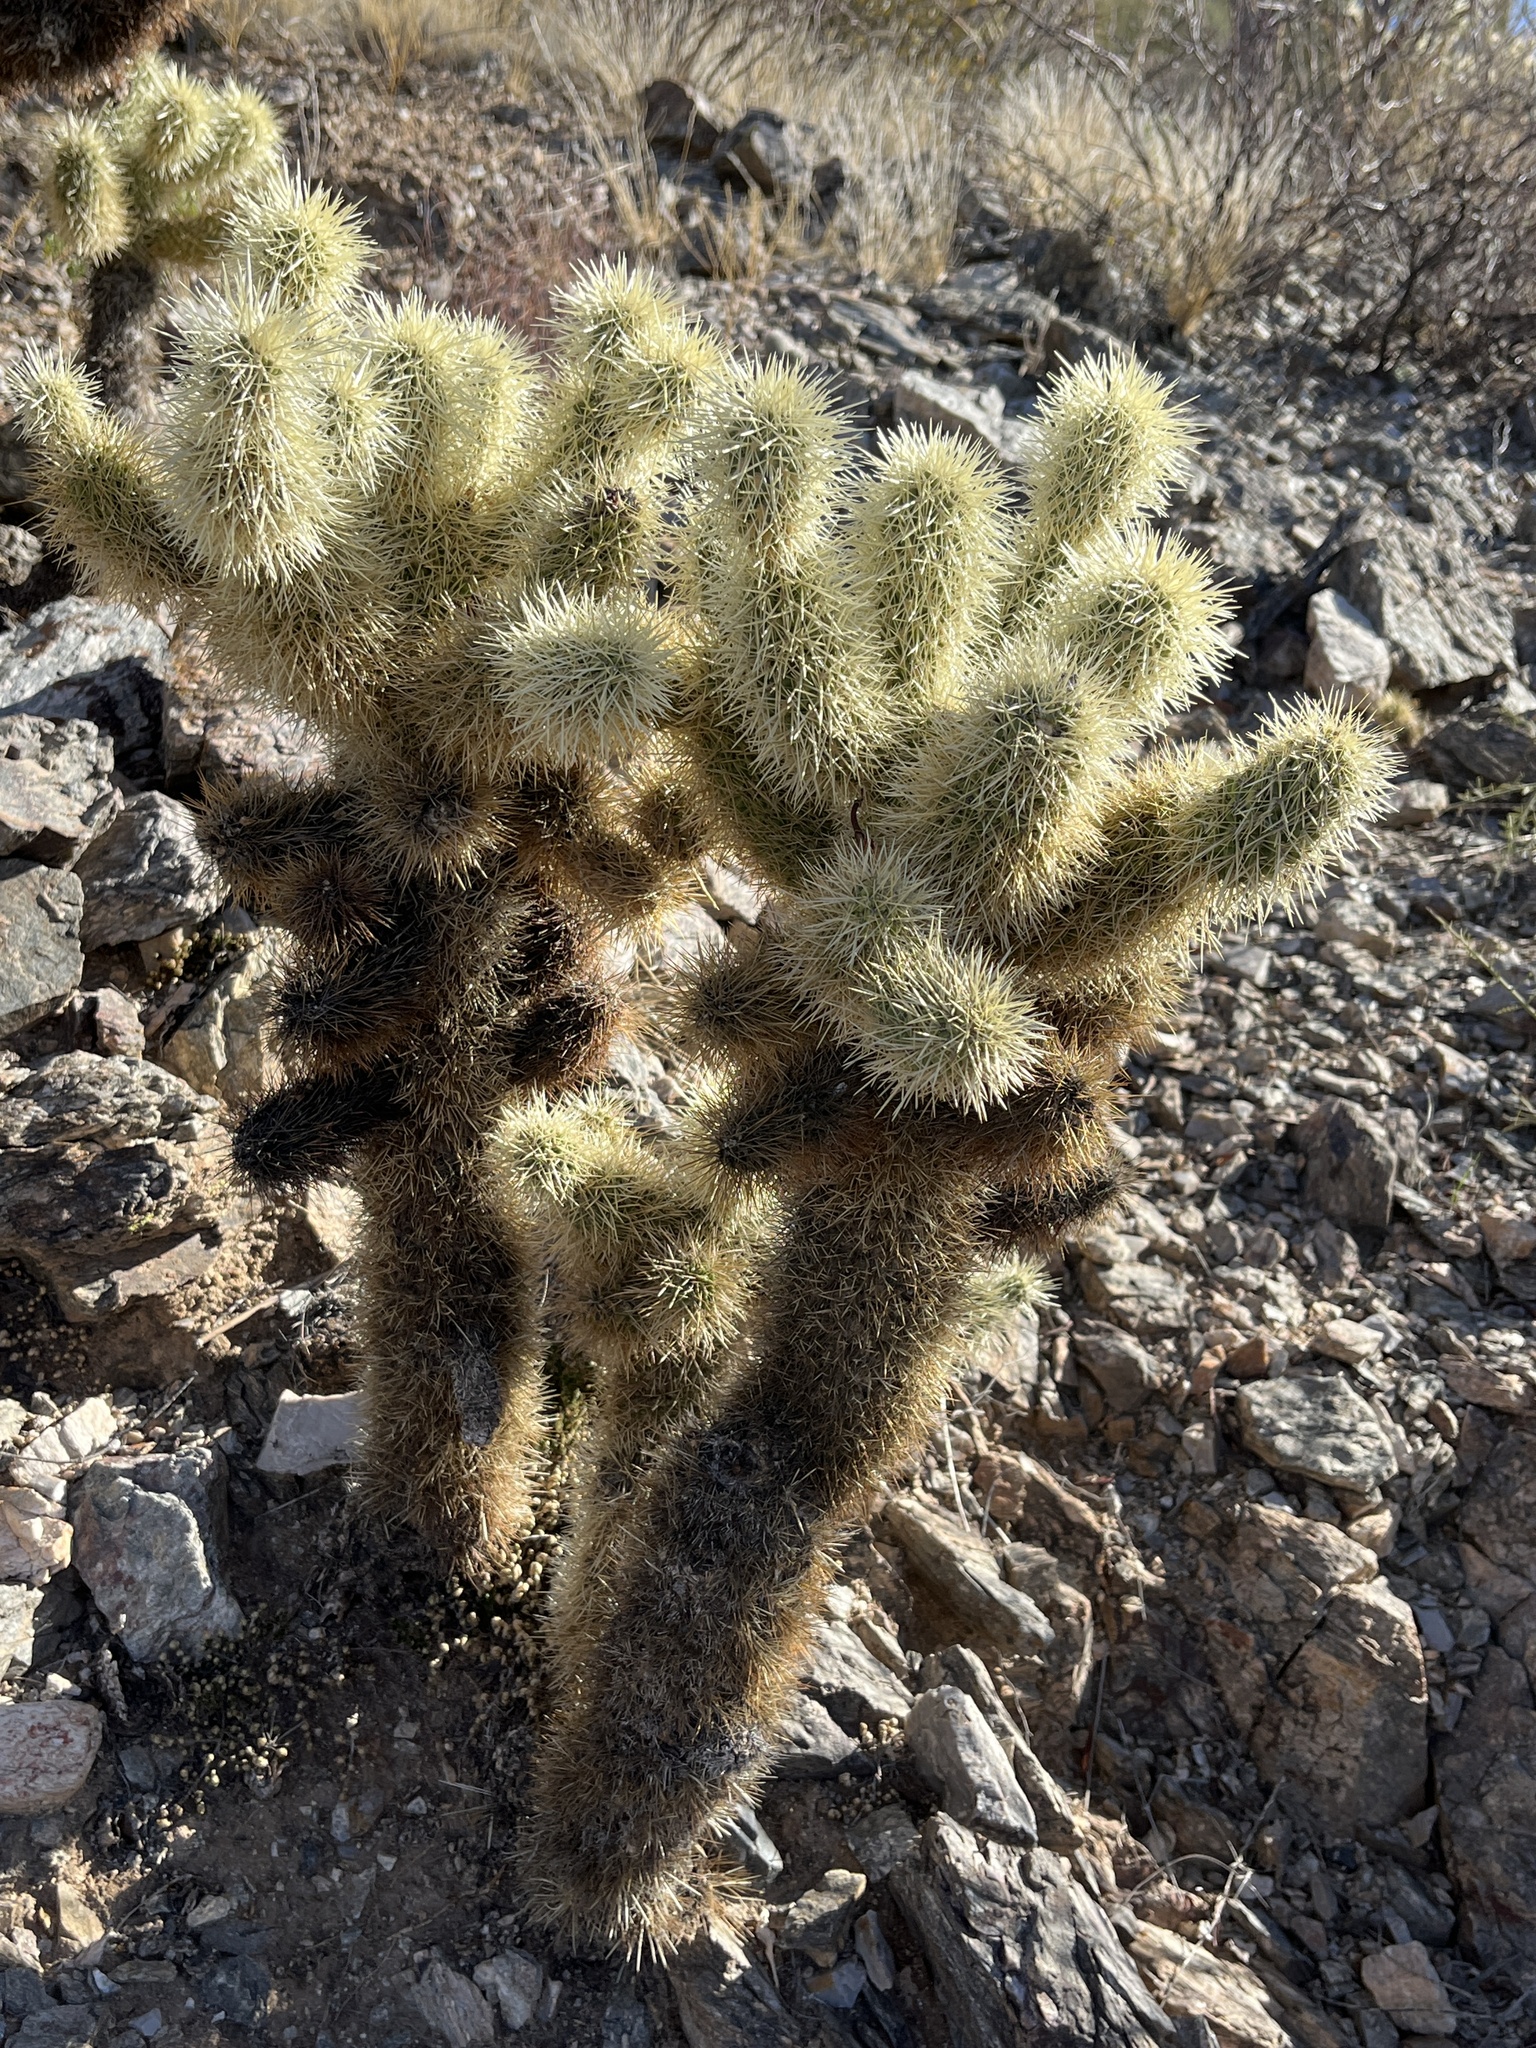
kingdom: Plantae
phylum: Tracheophyta
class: Magnoliopsida
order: Caryophyllales
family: Cactaceae
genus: Cylindropuntia
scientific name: Cylindropuntia fosbergii
